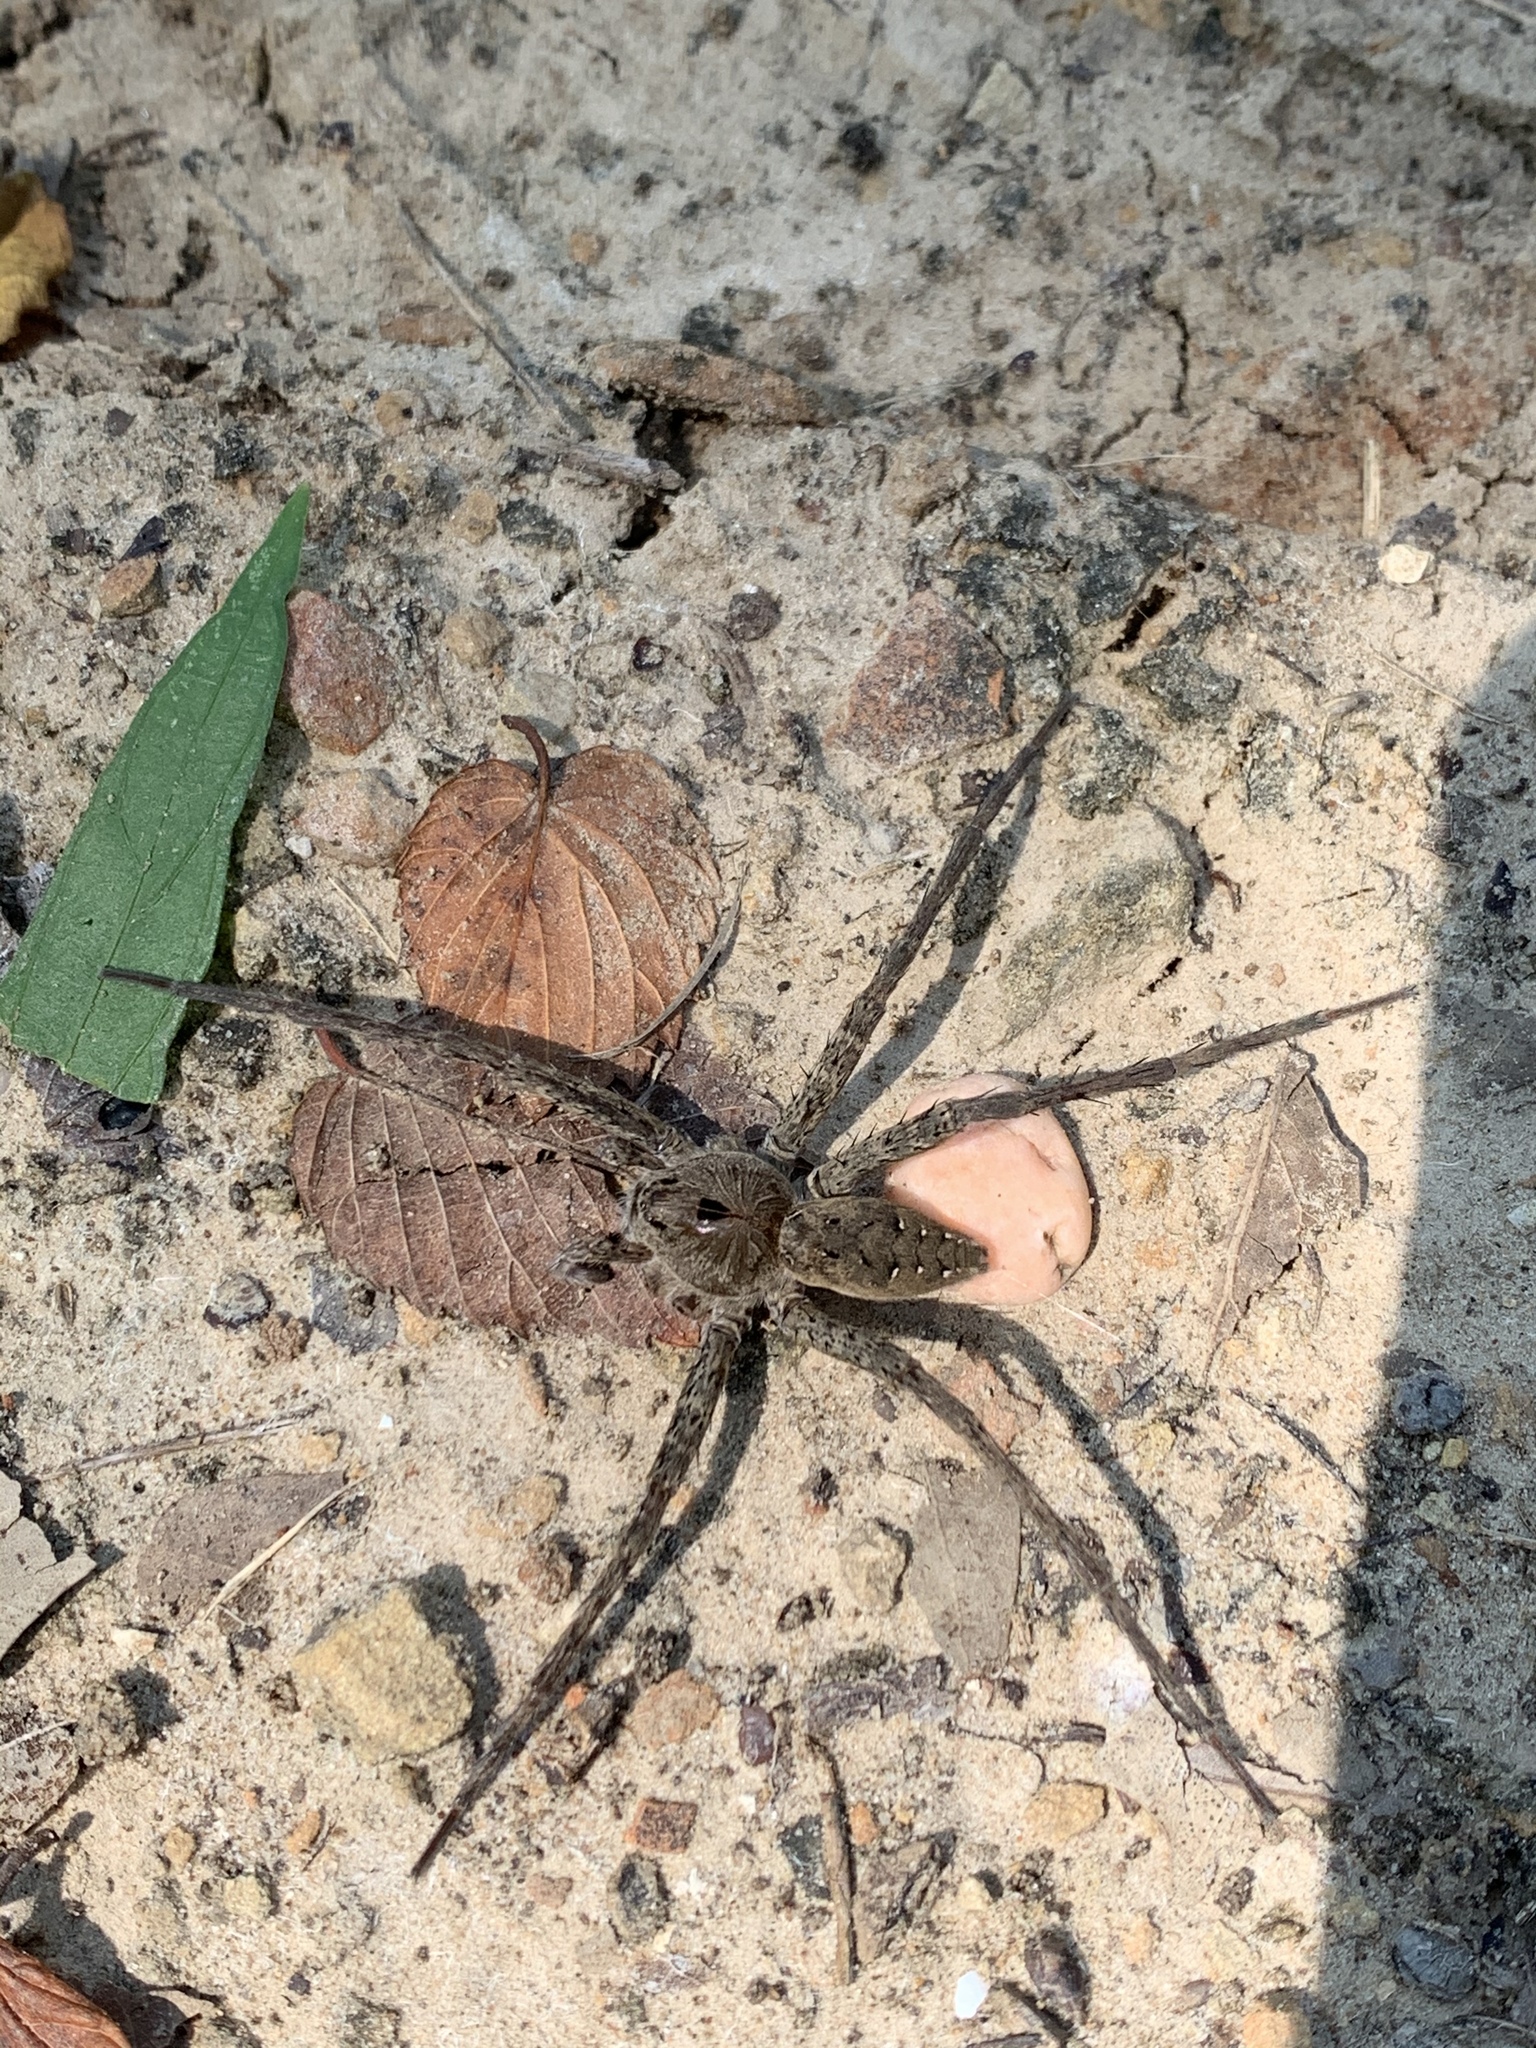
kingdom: Animalia
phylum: Arthropoda
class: Arachnida
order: Araneae
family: Pisauridae
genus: Dolomedes
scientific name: Dolomedes vittatus
